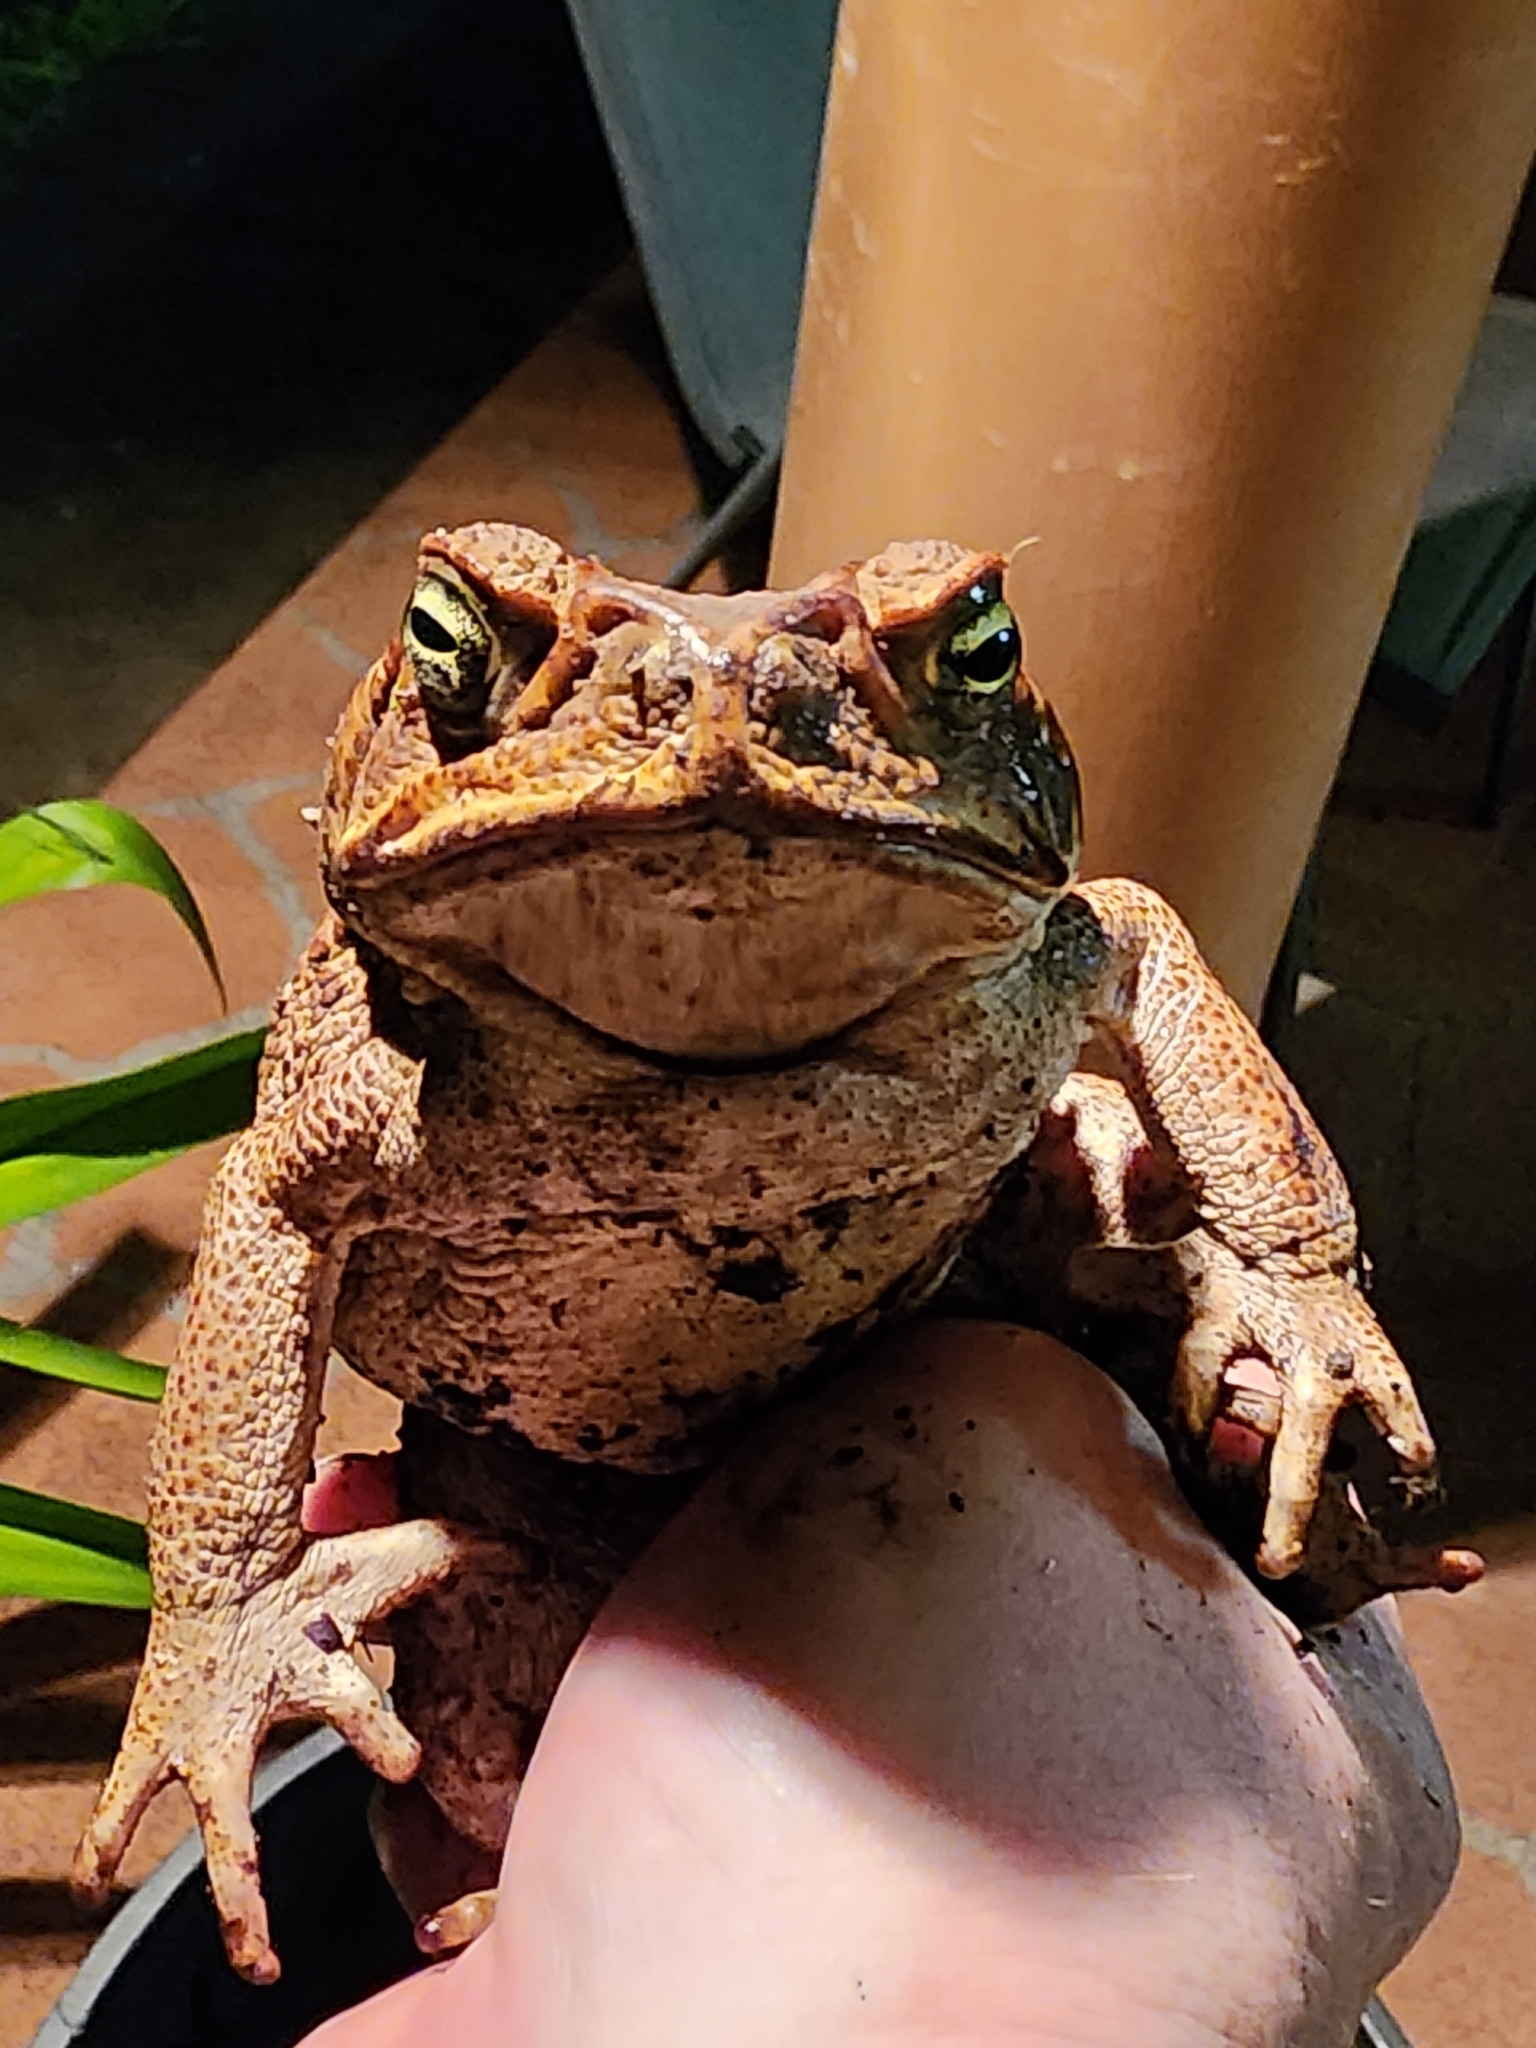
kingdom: Animalia
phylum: Chordata
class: Amphibia
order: Anura
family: Bufonidae
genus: Rhinella
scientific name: Rhinella marina
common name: Cane toad
